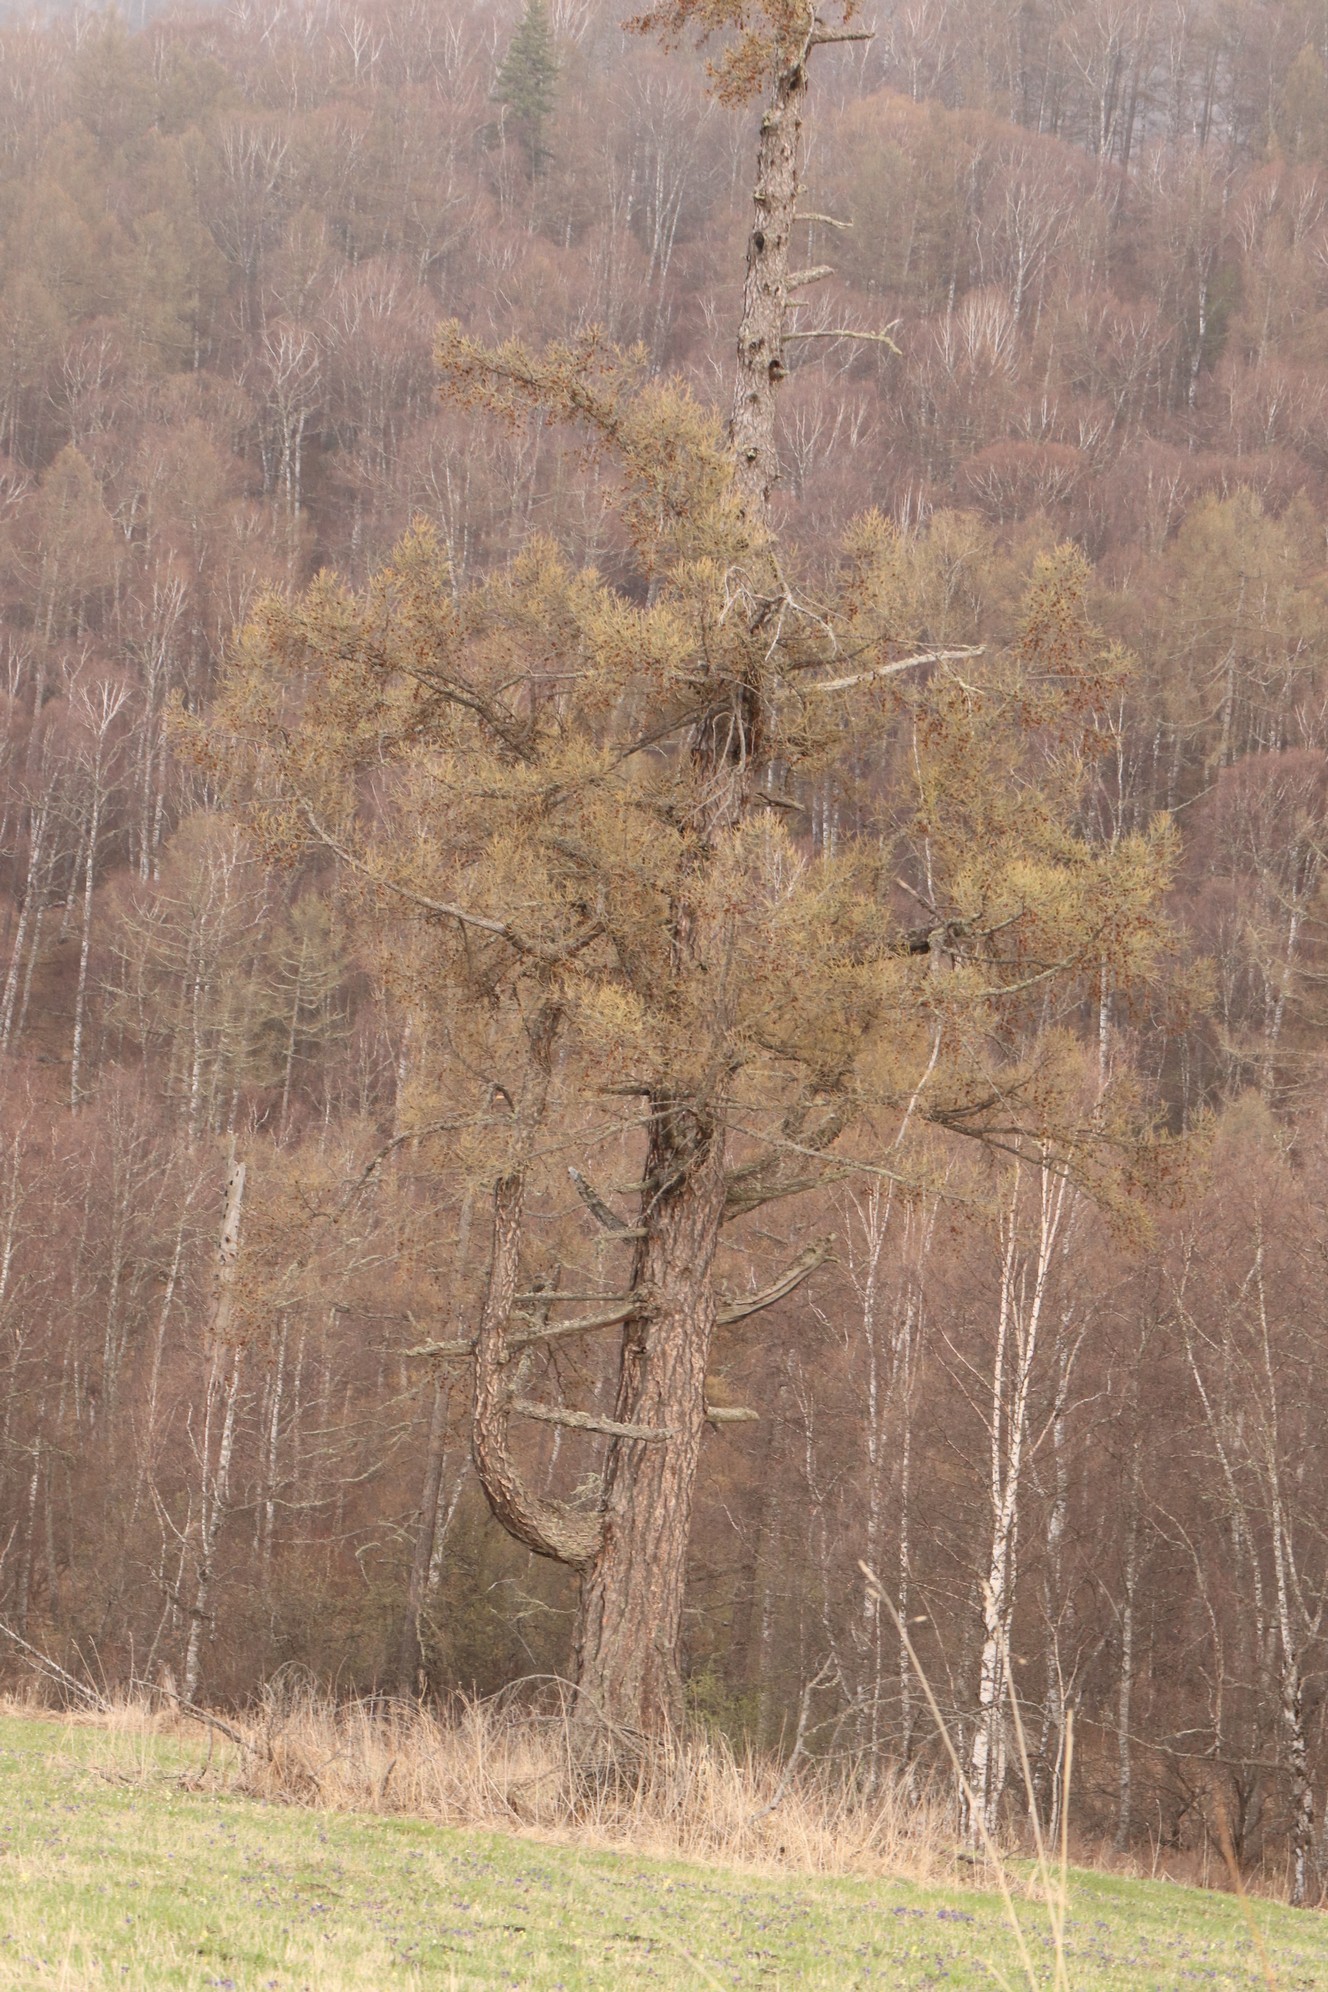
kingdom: Plantae
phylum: Tracheophyta
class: Pinopsida
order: Pinales
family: Pinaceae
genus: Larix
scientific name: Larix sibirica
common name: Siberian larch
